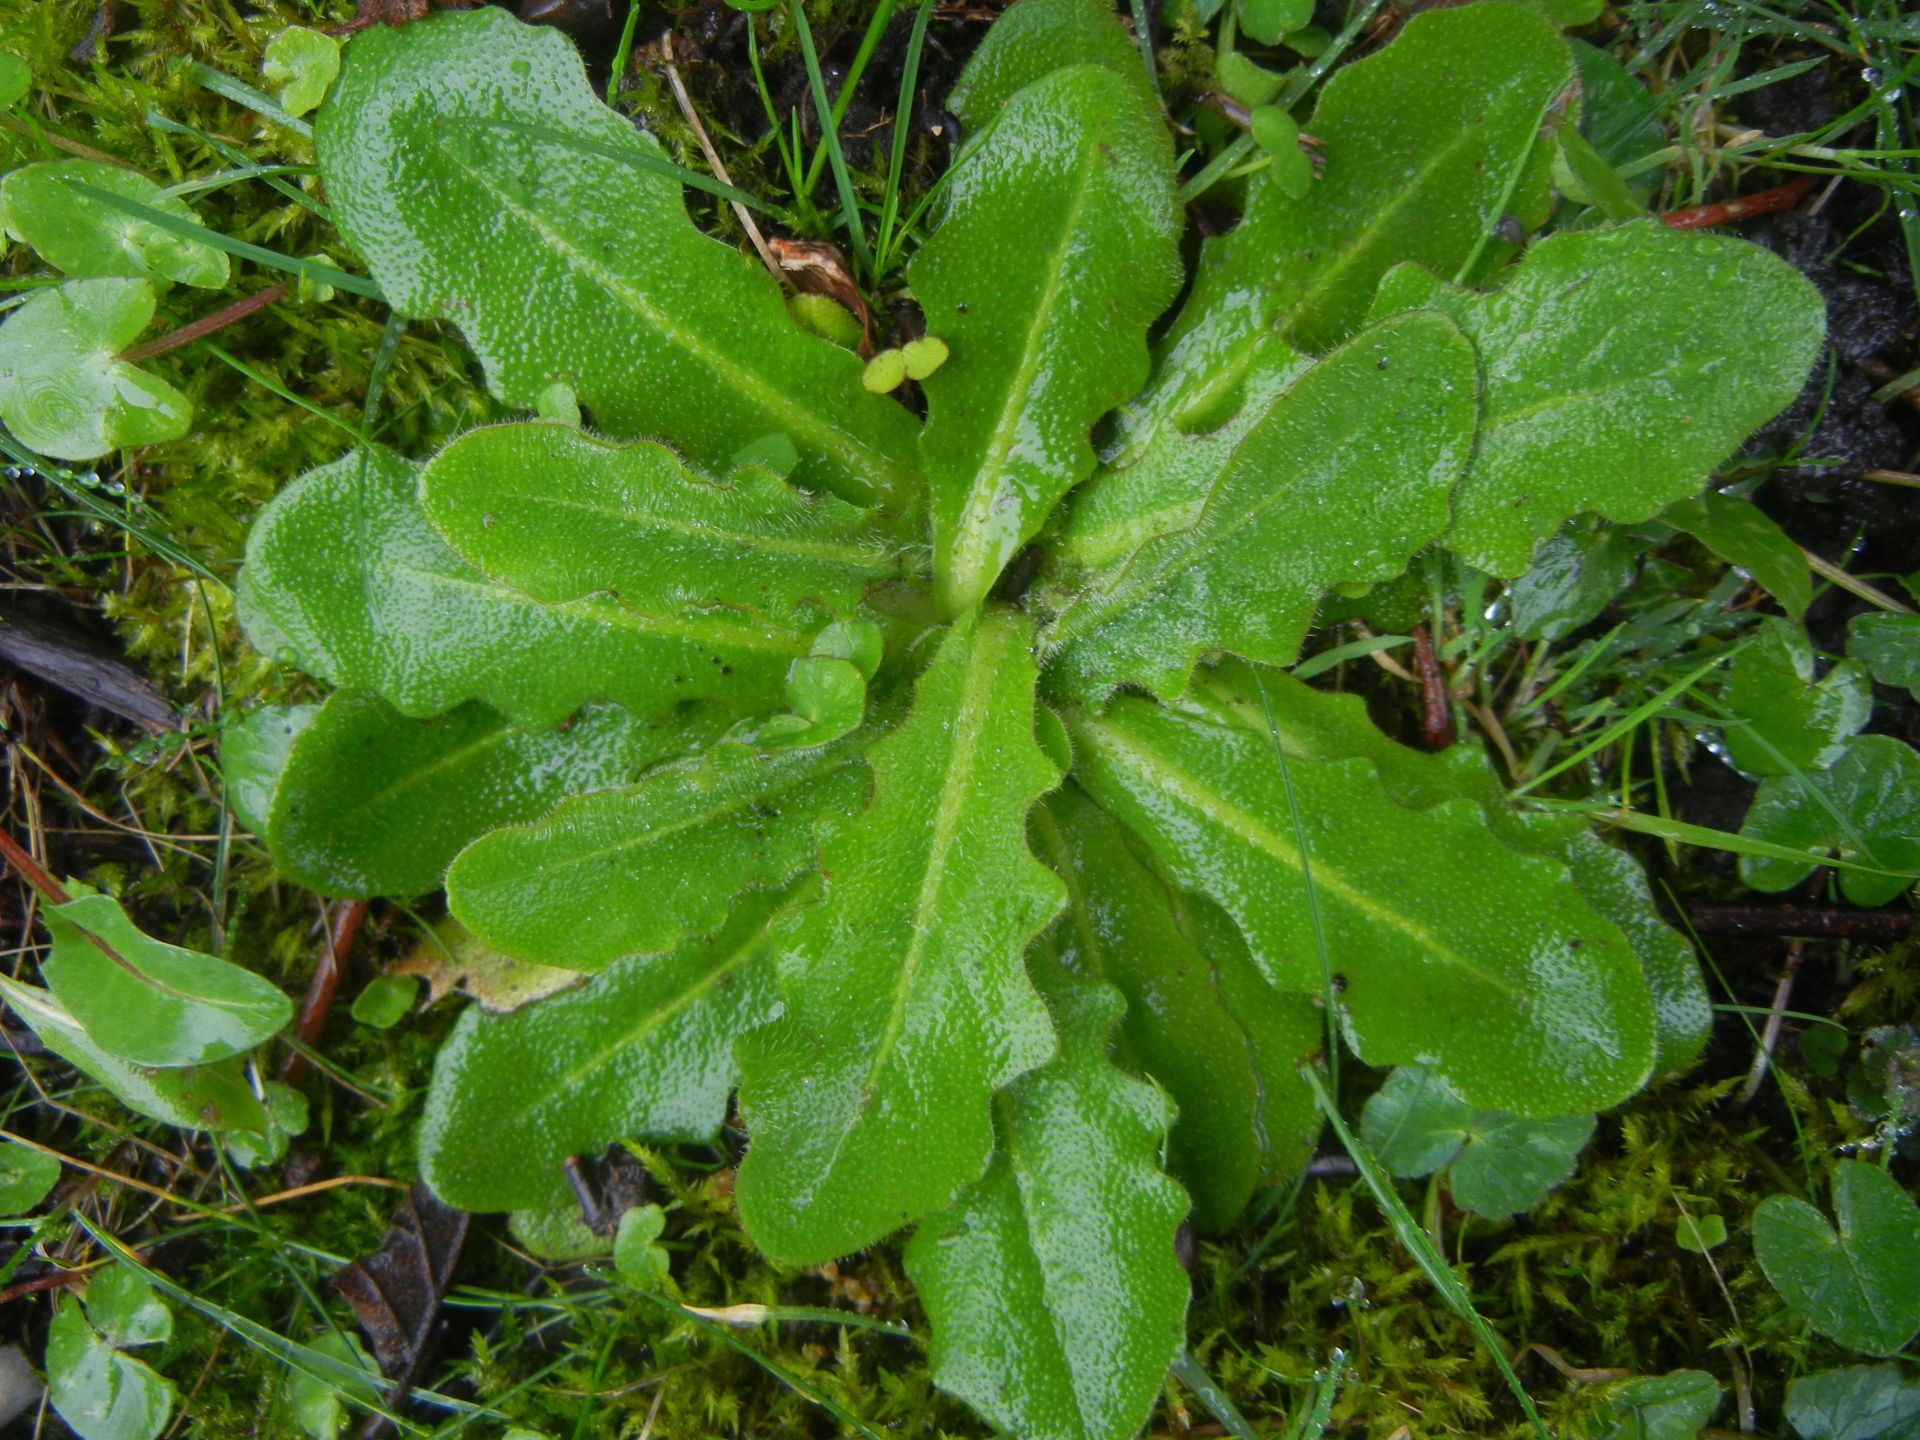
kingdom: Plantae
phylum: Tracheophyta
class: Magnoliopsida
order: Asterales
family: Asteraceae
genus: Hypochaeris
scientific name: Hypochaeris radicata
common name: Flatweed
